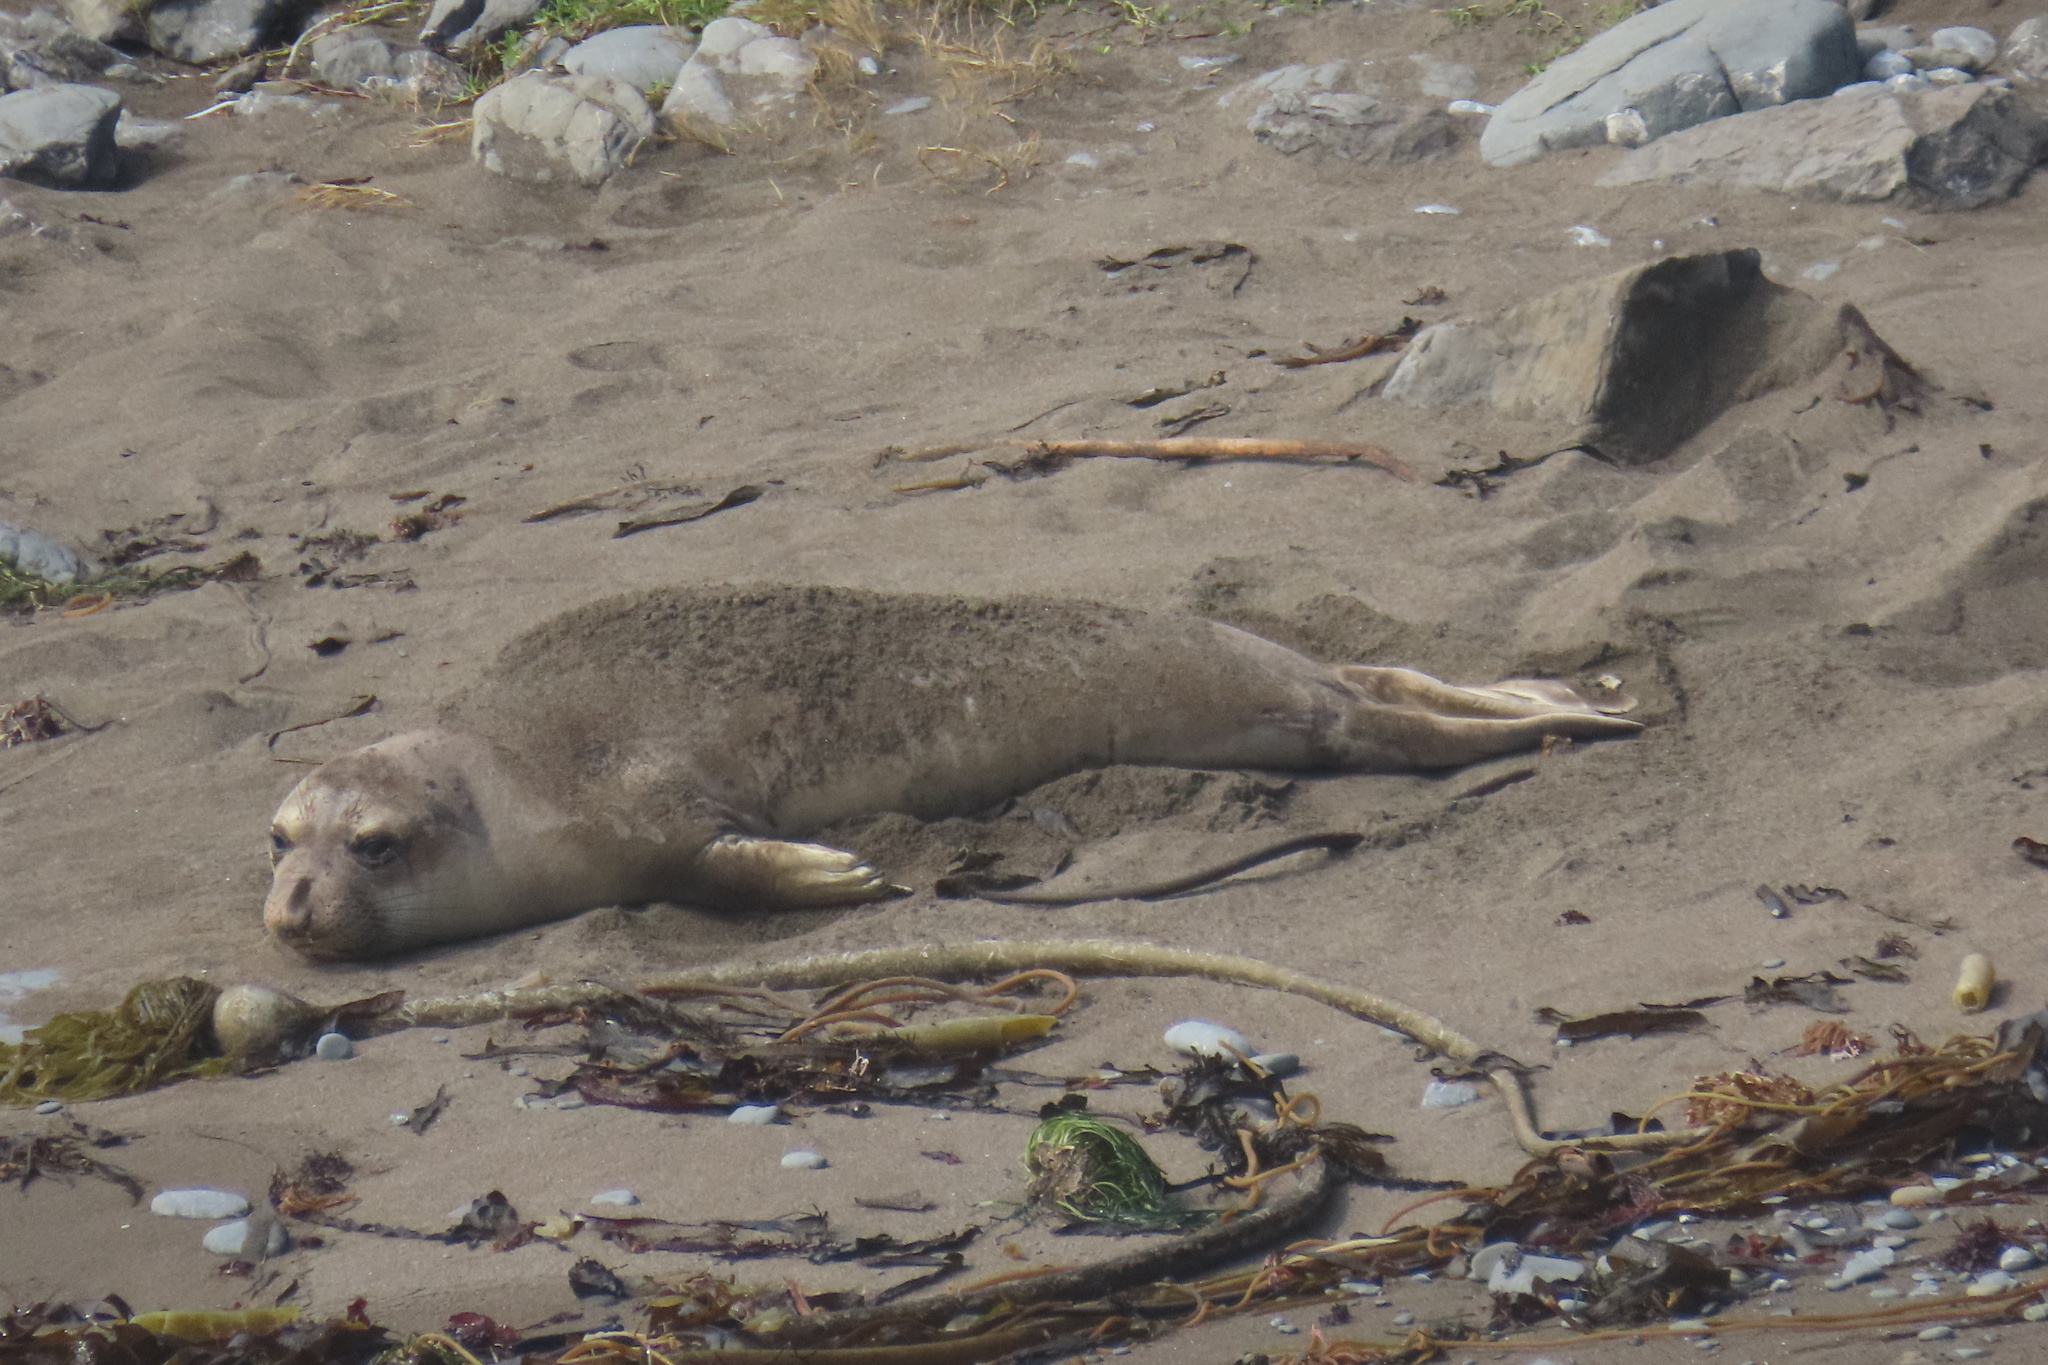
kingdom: Animalia
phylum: Chordata
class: Mammalia
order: Carnivora
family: Phocidae
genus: Mirounga
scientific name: Mirounga angustirostris
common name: Northern elephant seal
